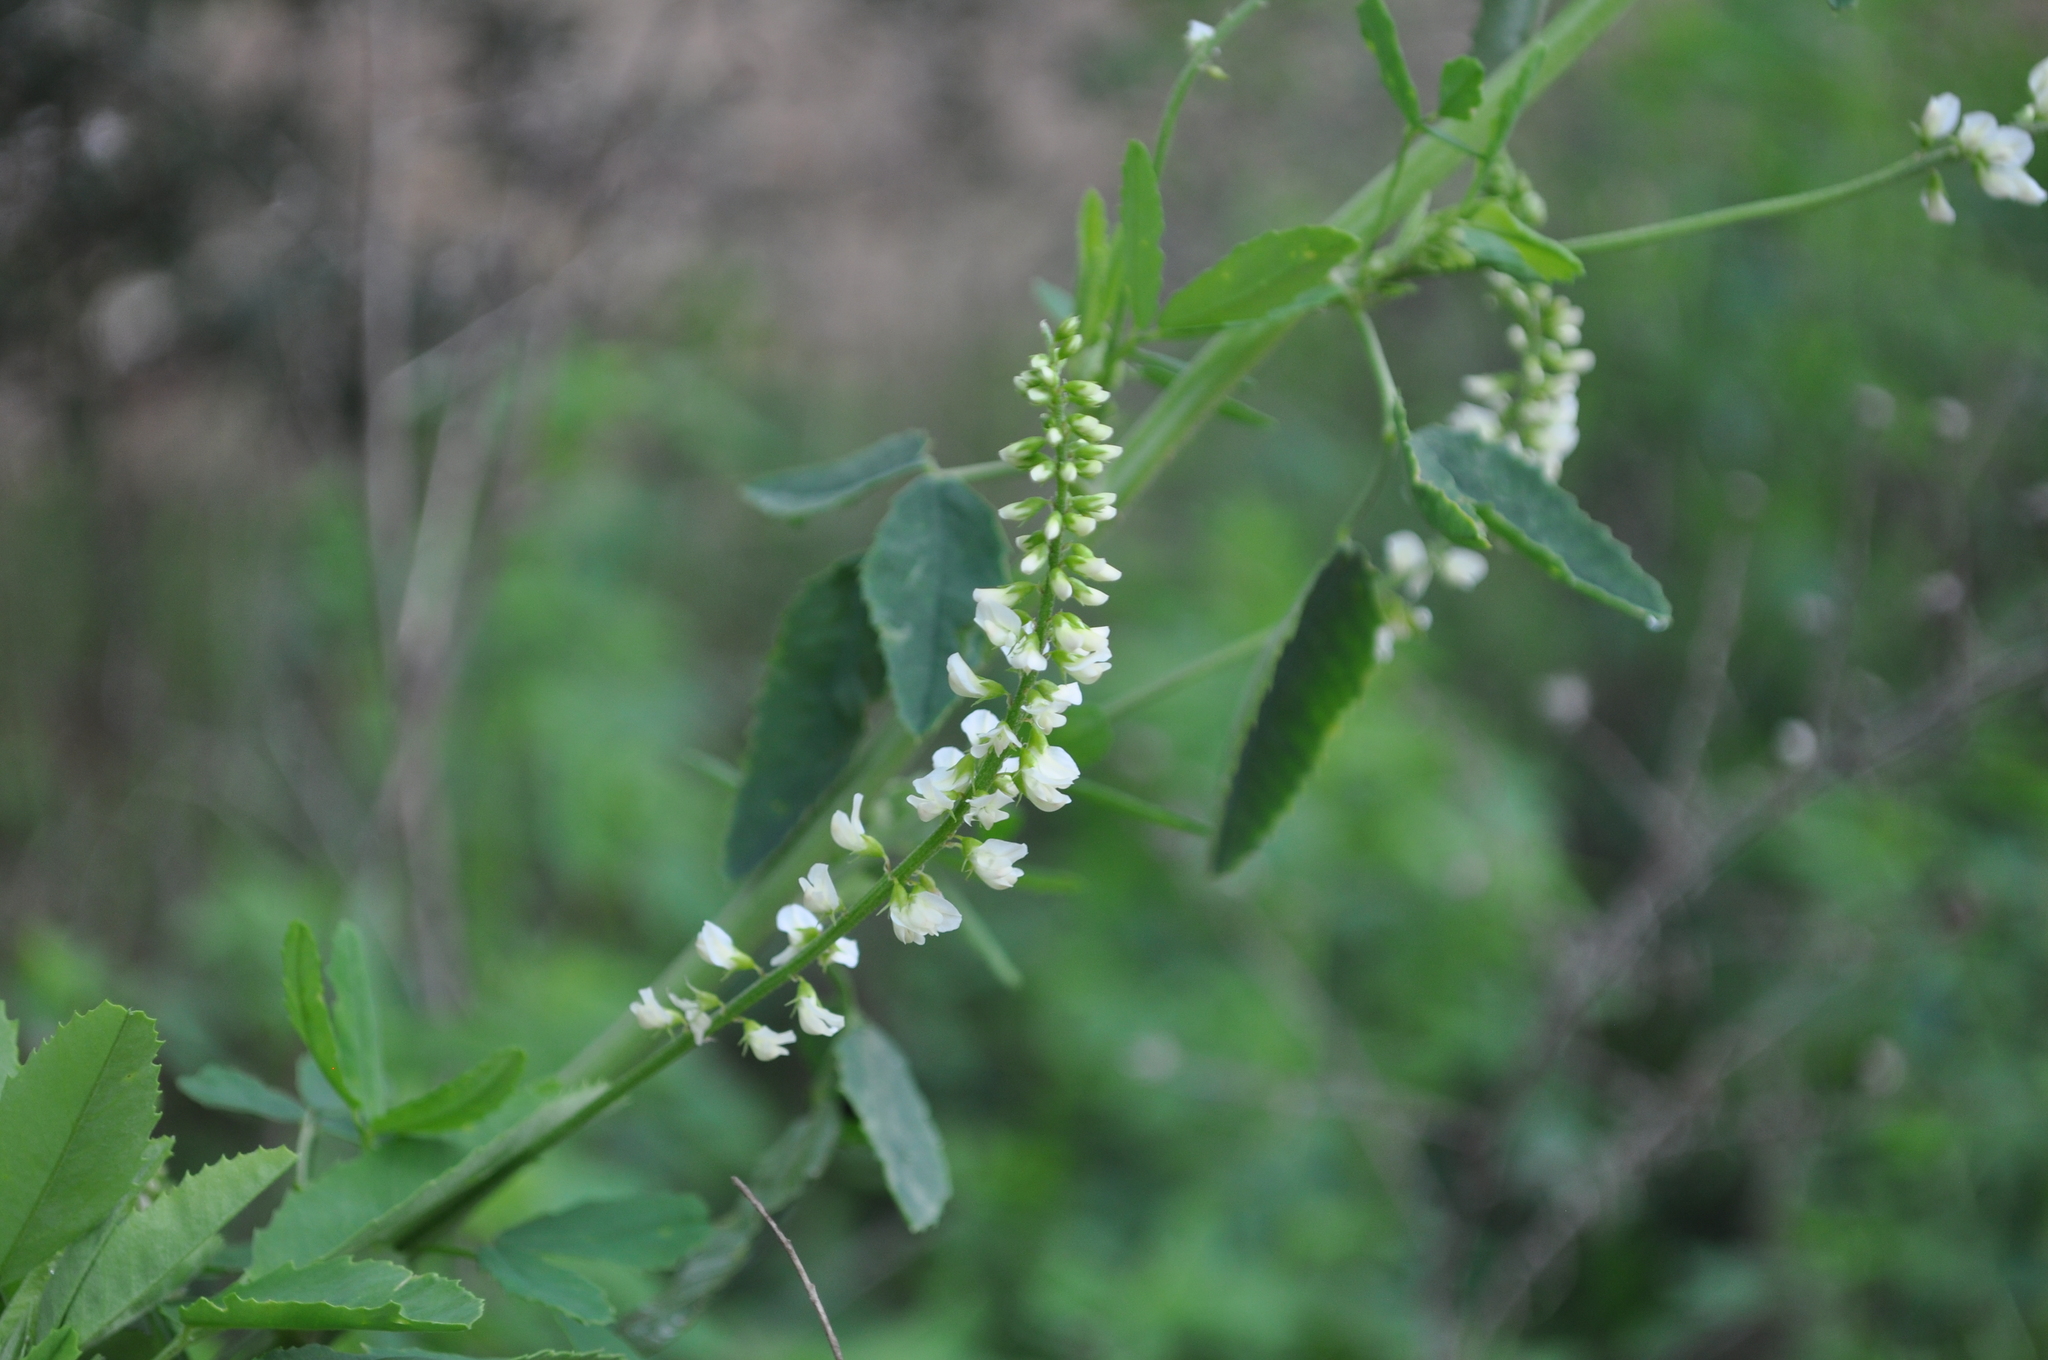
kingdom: Plantae
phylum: Tracheophyta
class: Magnoliopsida
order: Fabales
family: Fabaceae
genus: Melilotus
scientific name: Melilotus albus
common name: White melilot
